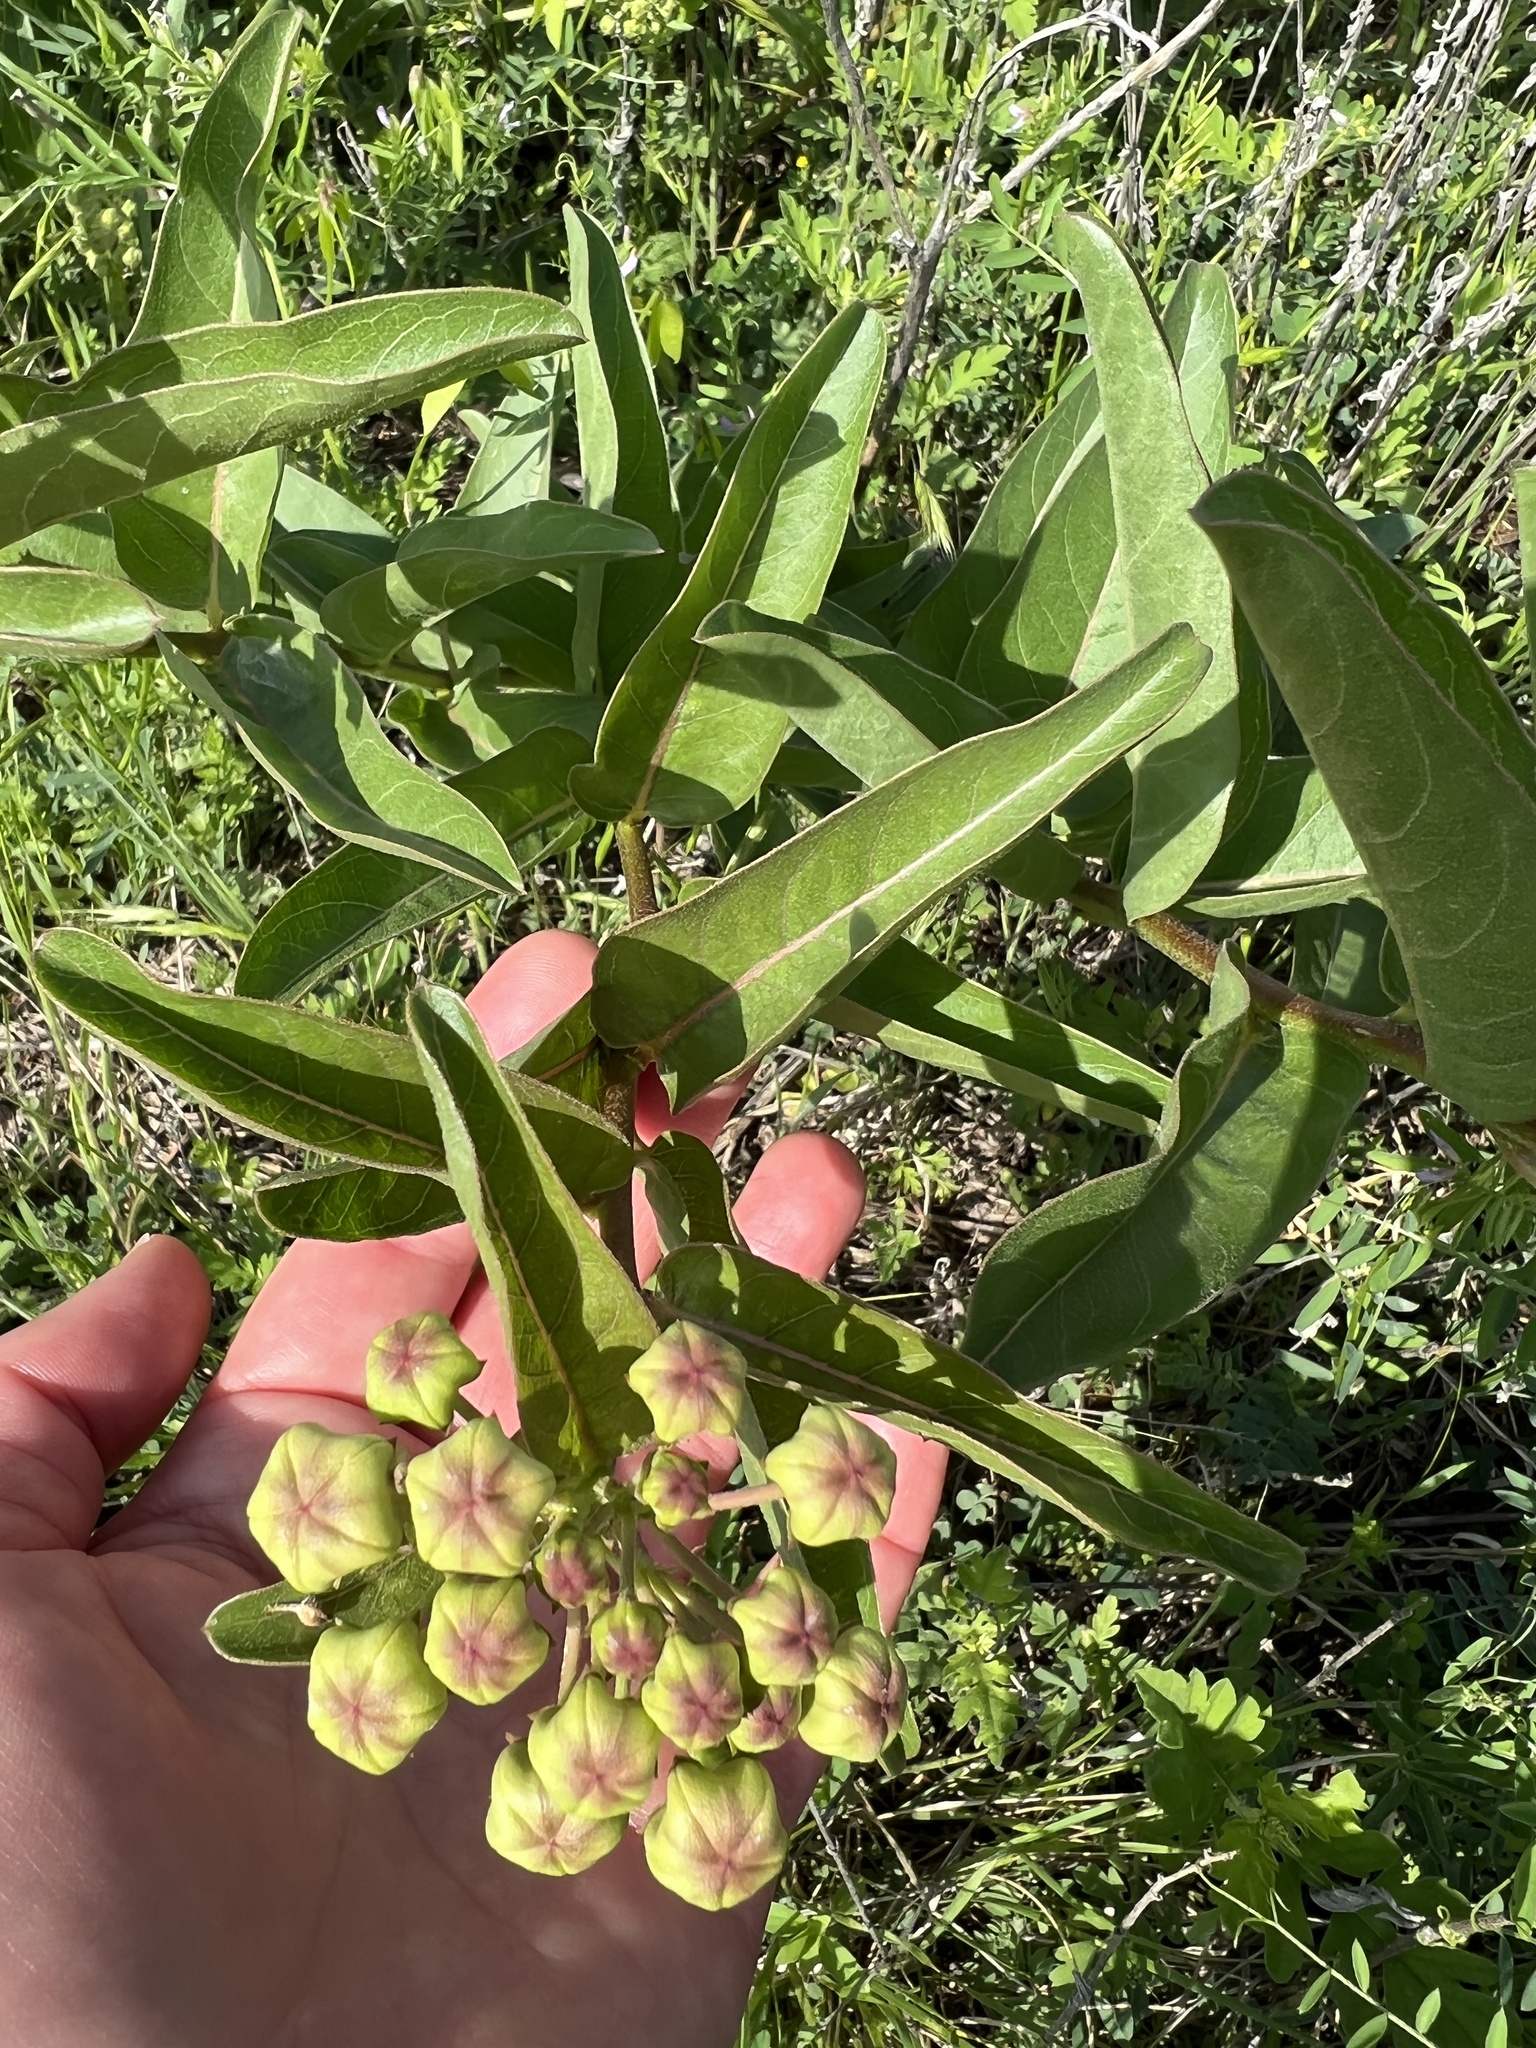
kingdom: Plantae
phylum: Tracheophyta
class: Magnoliopsida
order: Gentianales
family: Apocynaceae
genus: Asclepias
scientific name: Asclepias asperula
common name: Antelope horns
